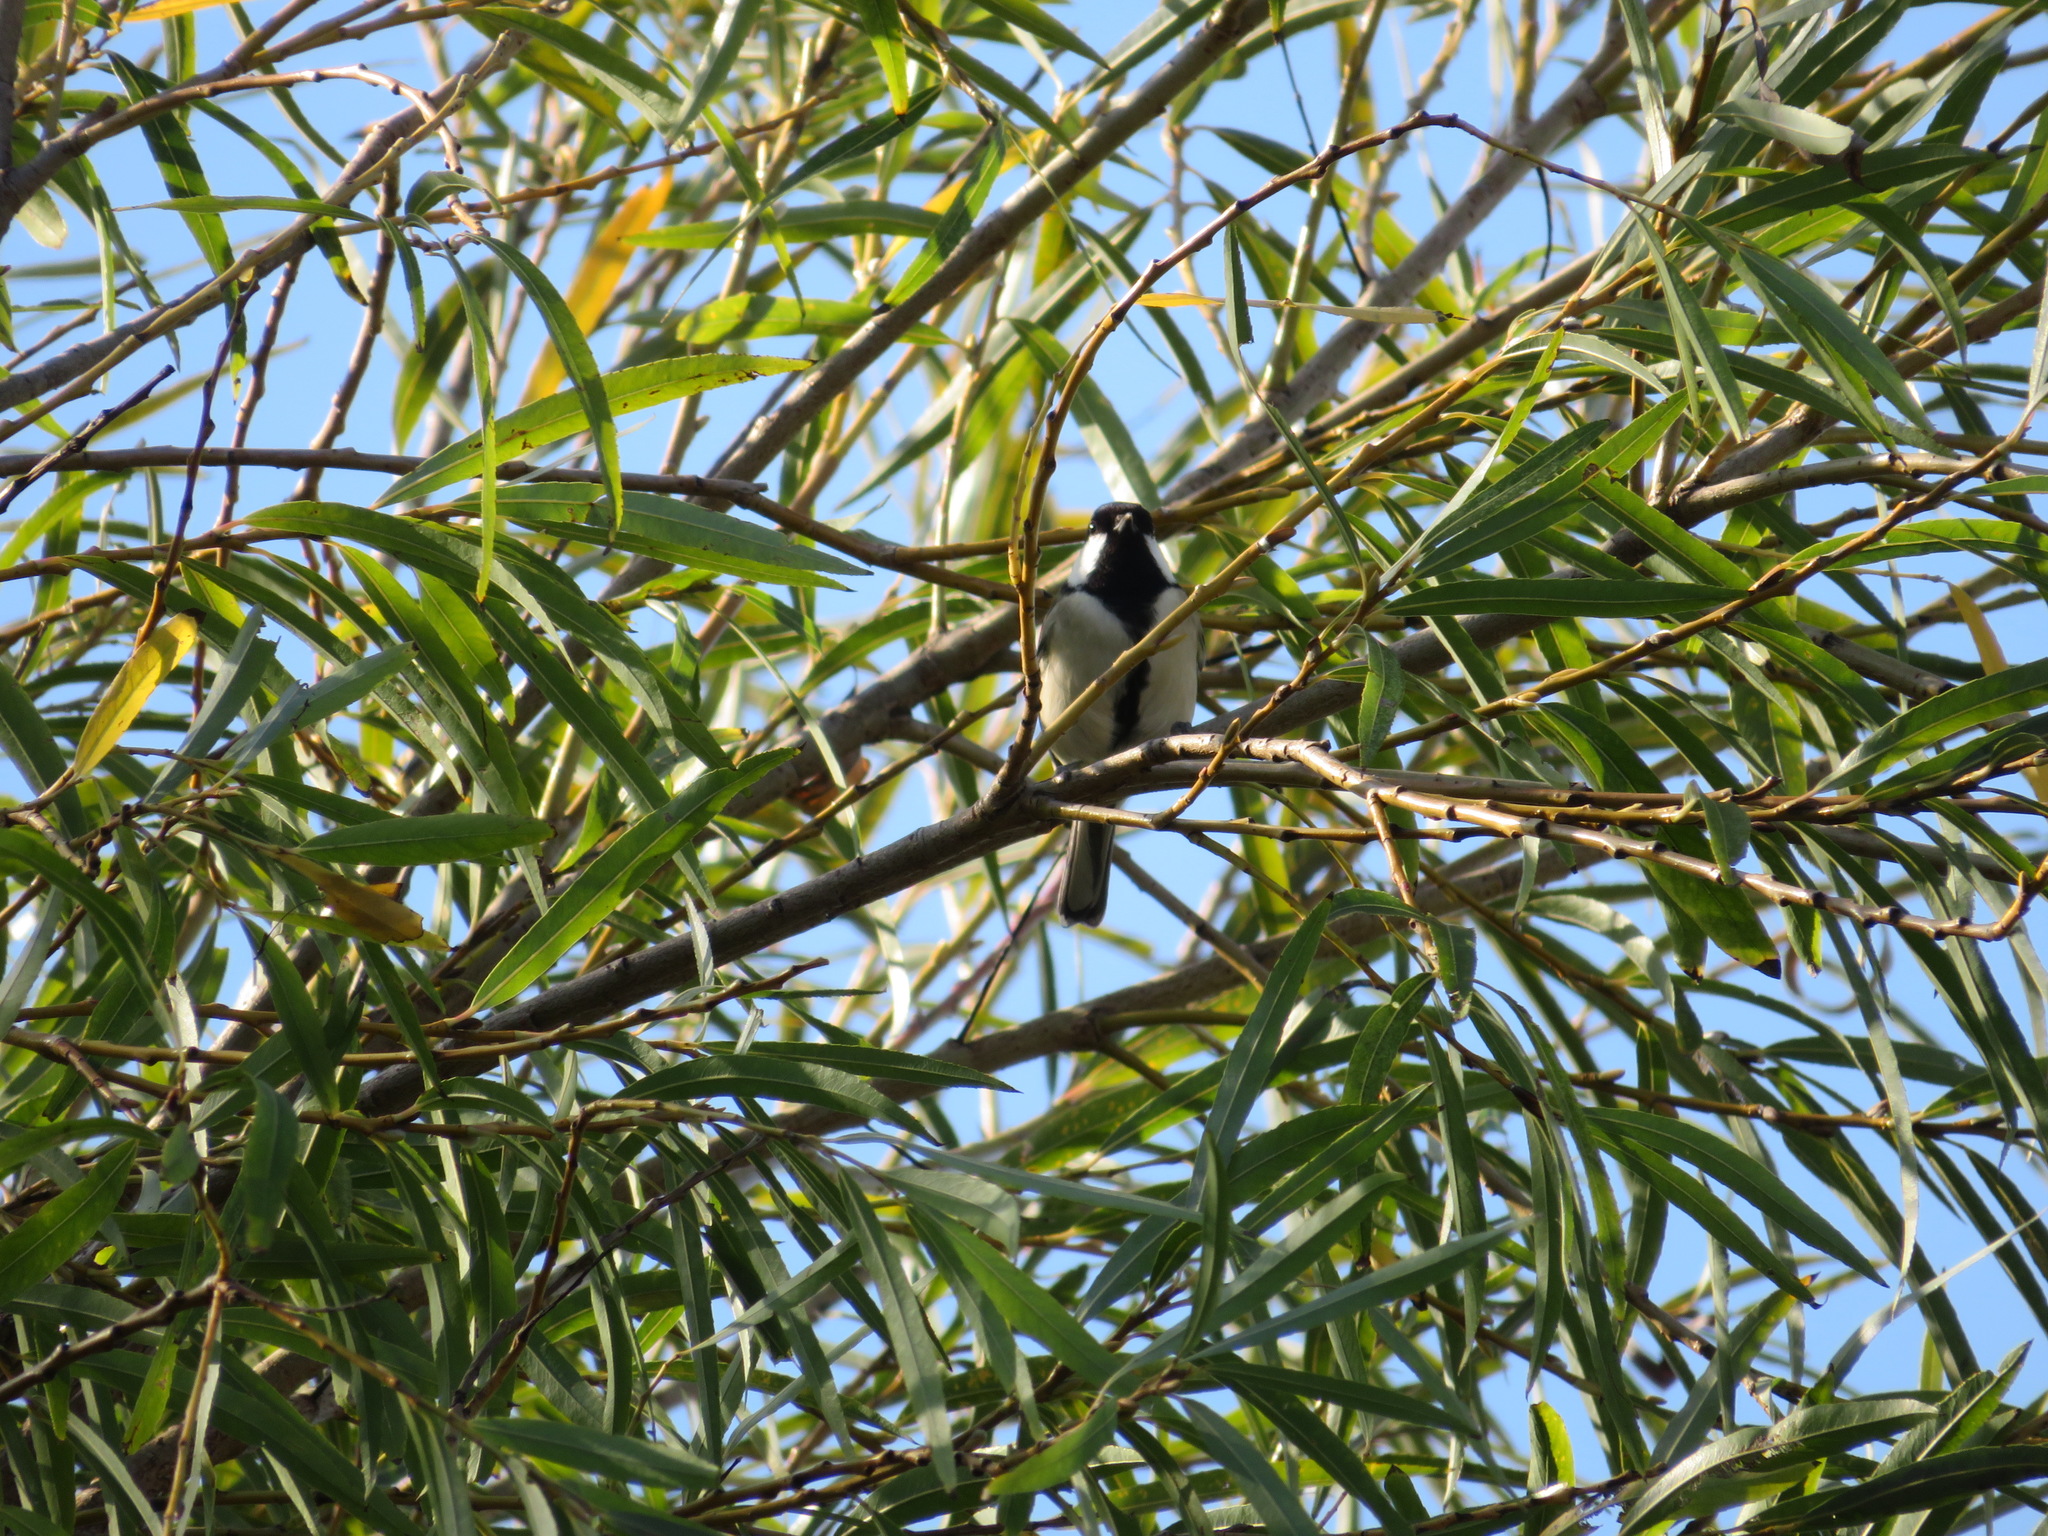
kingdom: Animalia
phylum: Chordata
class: Aves
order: Passeriformes
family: Paridae
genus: Parus
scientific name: Parus minor
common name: Japanese tit
